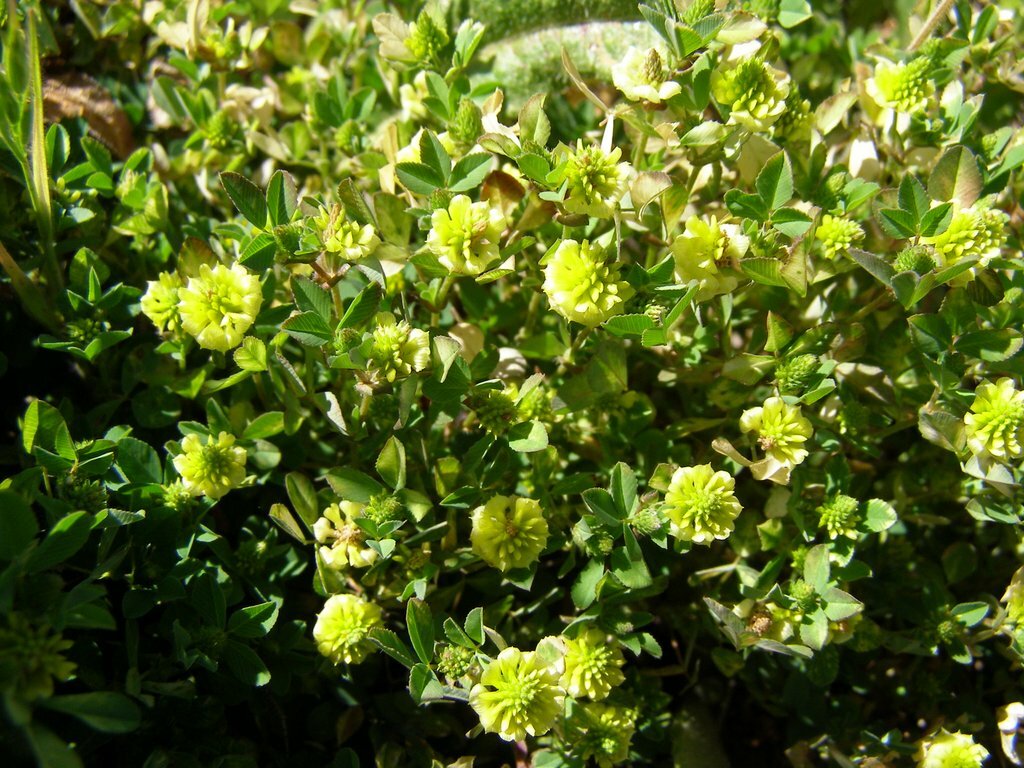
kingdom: Plantae
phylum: Tracheophyta
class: Magnoliopsida
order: Fabales
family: Fabaceae
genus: Trifolium
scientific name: Trifolium campestre
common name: Field clover
